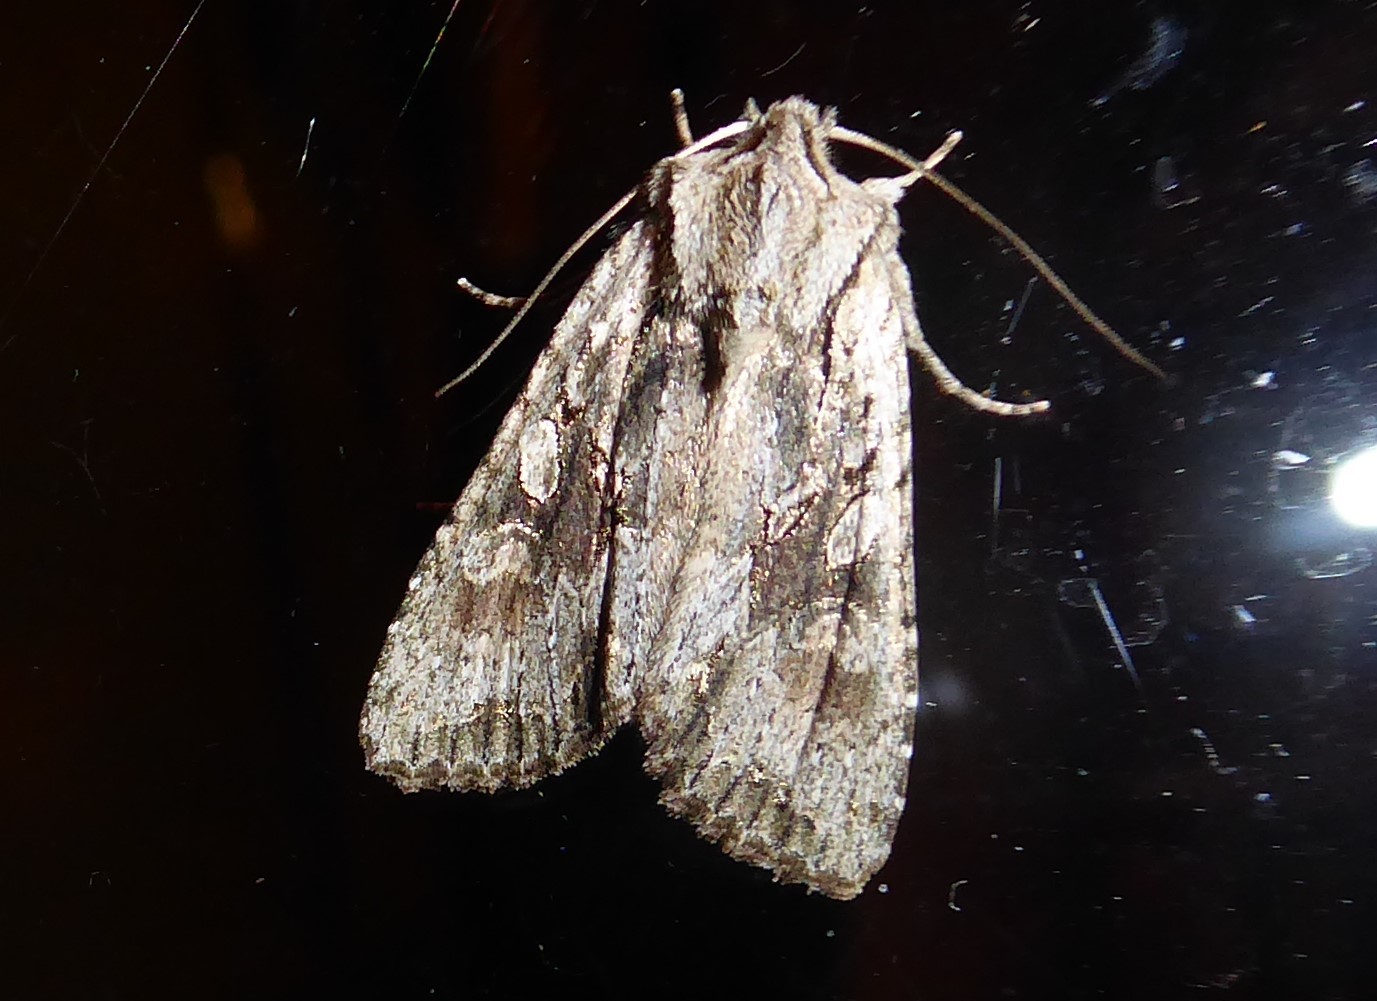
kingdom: Animalia
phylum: Arthropoda
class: Insecta
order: Lepidoptera
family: Noctuidae
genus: Ichneutica
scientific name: Ichneutica mutans
